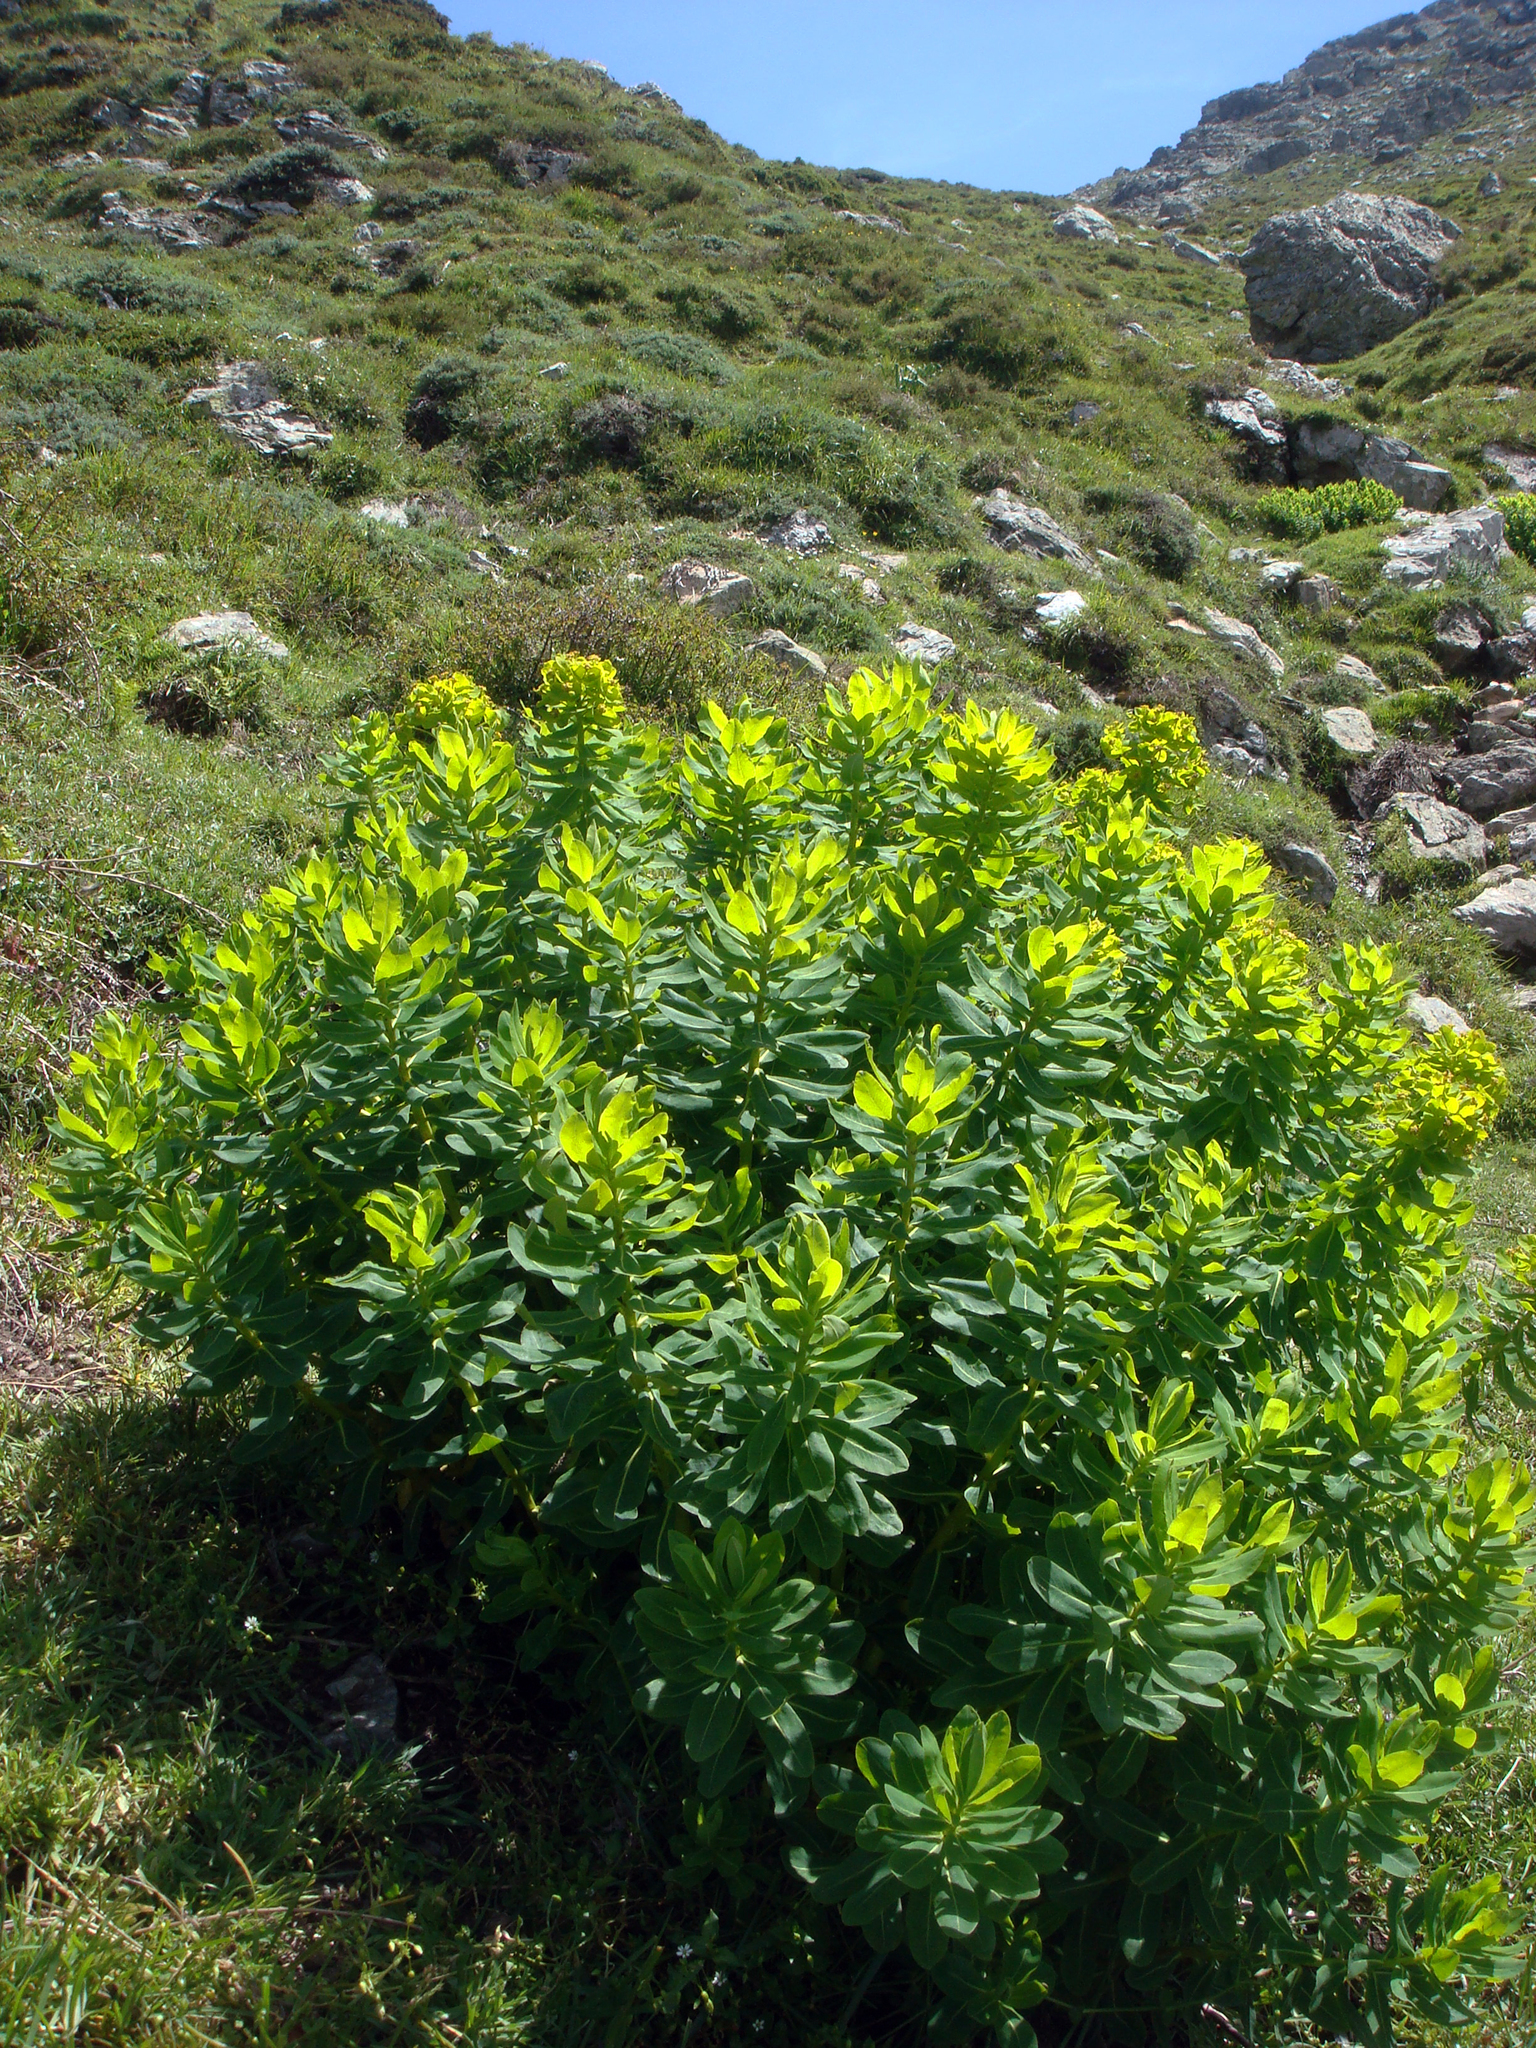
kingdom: Plantae
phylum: Tracheophyta
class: Magnoliopsida
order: Malpighiales
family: Euphorbiaceae
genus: Euphorbia
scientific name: Euphorbia insularis
